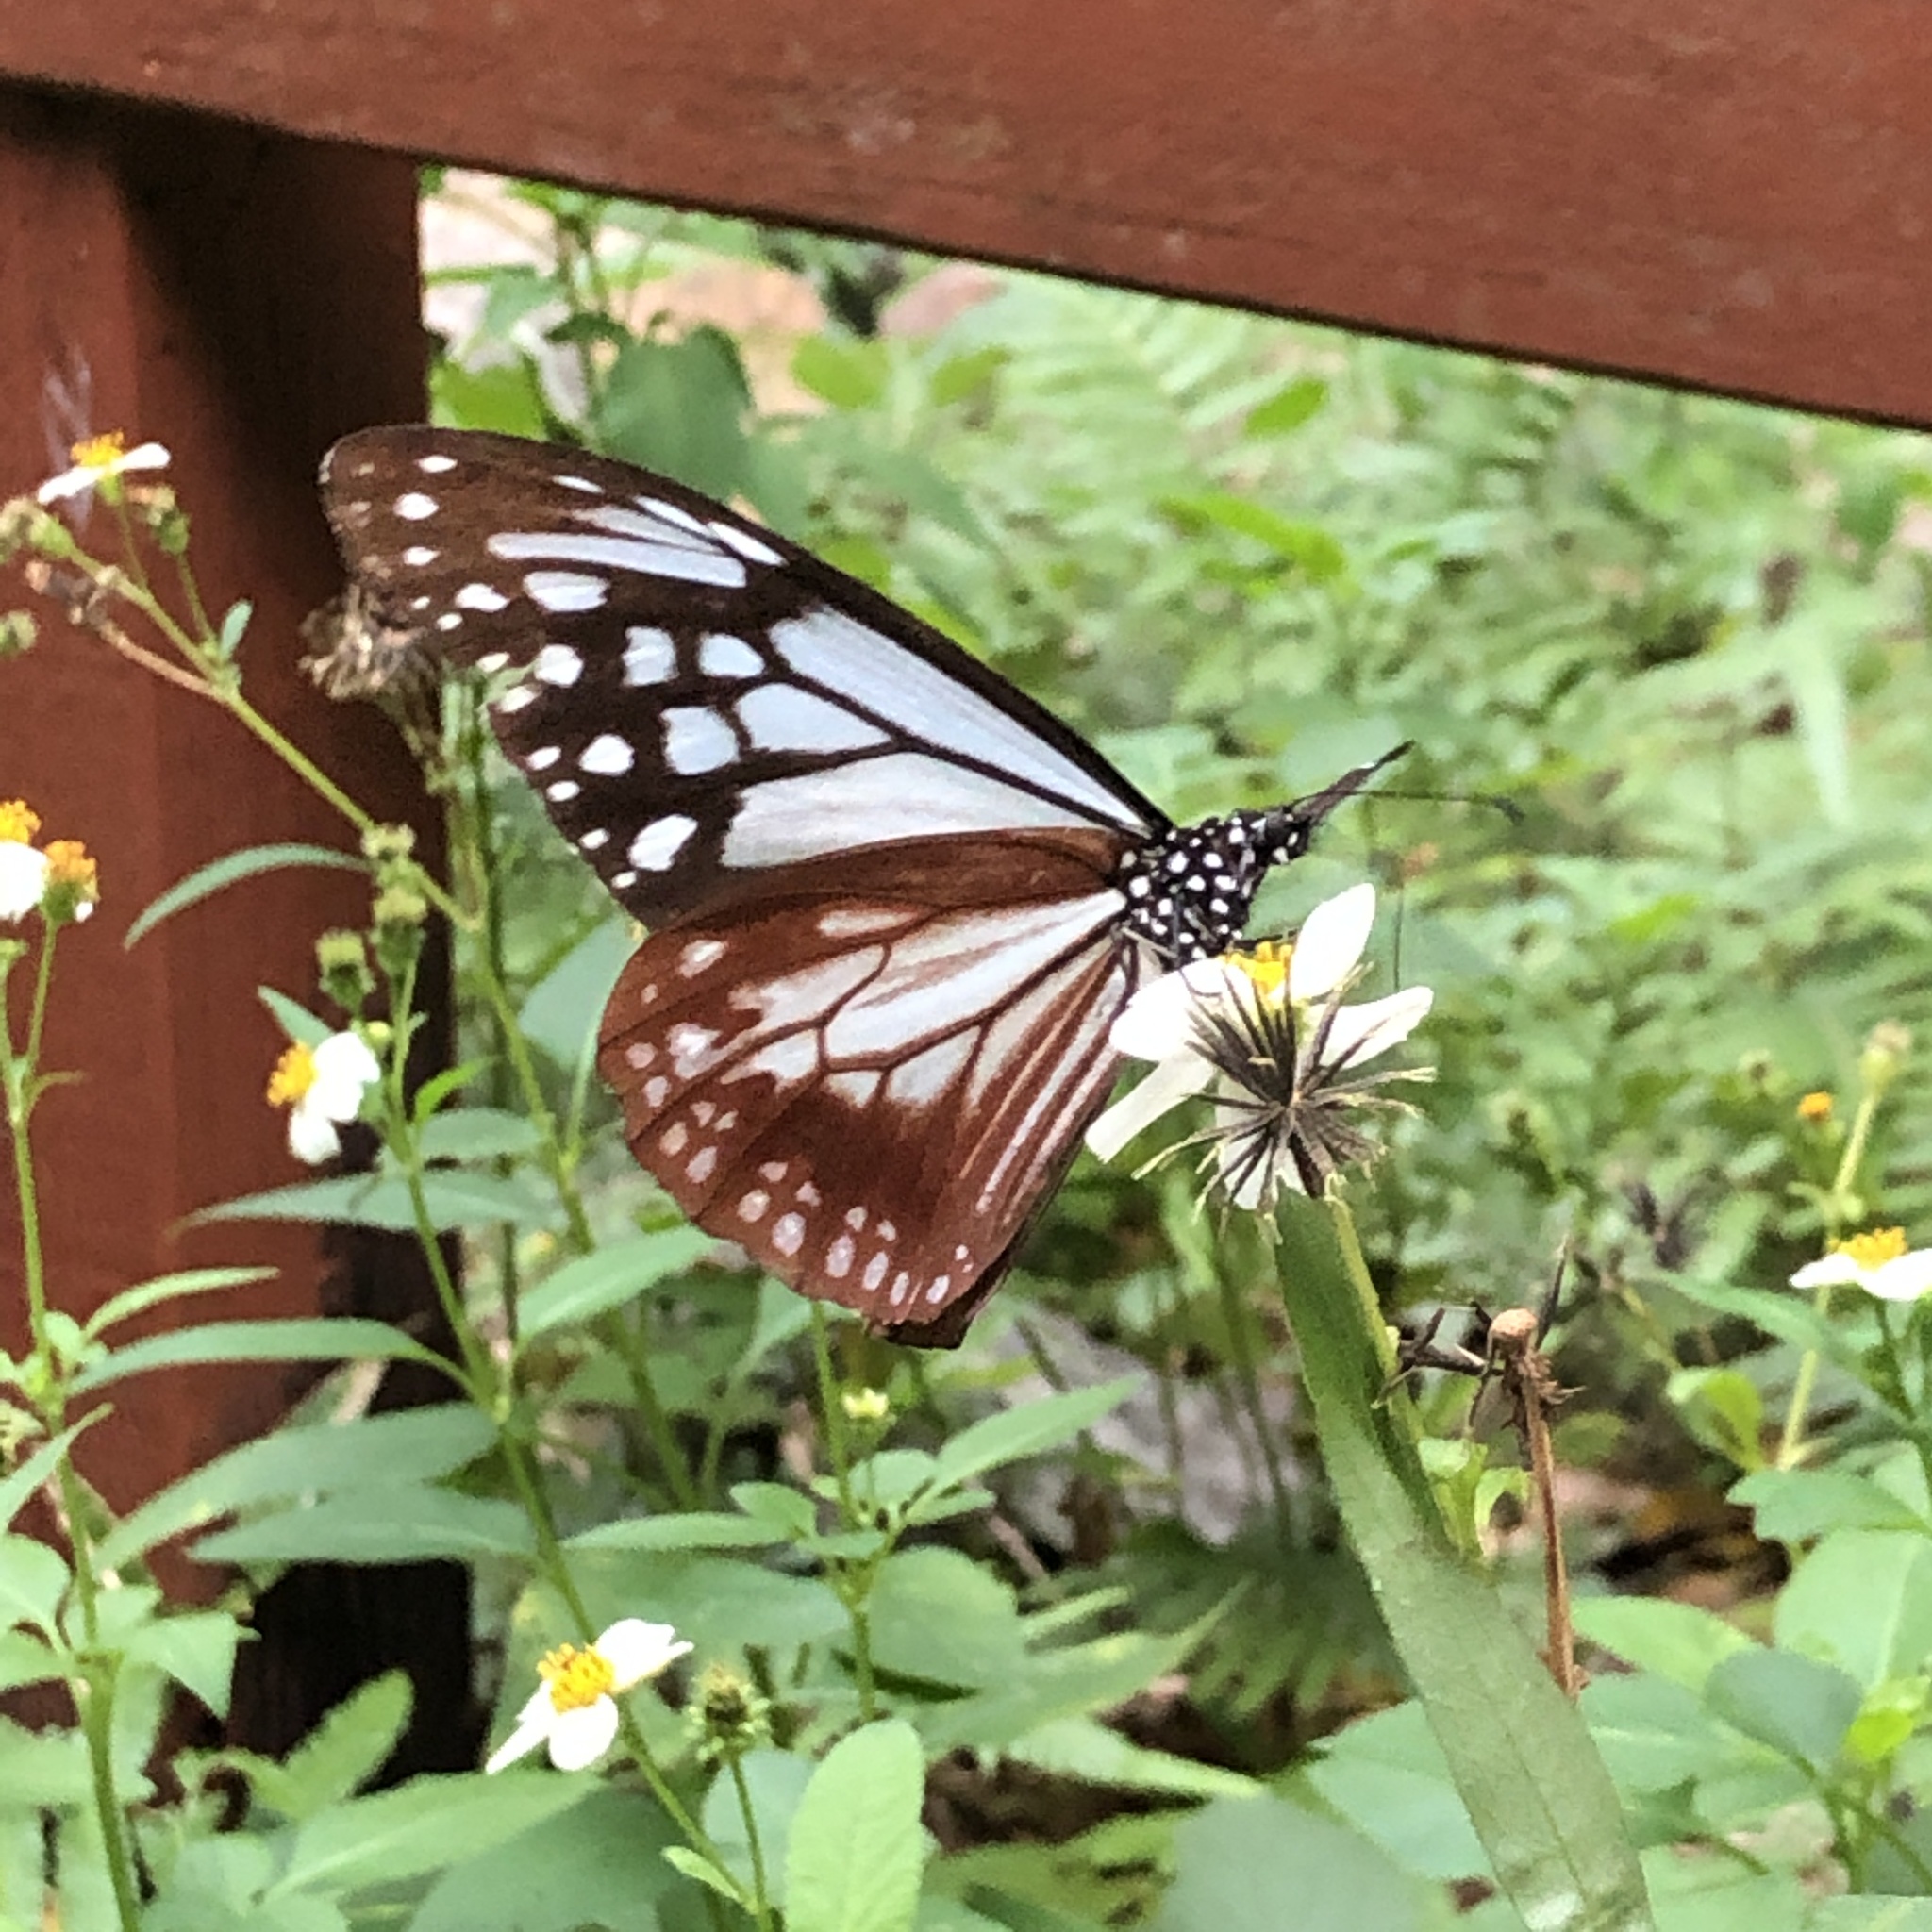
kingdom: Animalia
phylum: Arthropoda
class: Insecta
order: Lepidoptera
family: Nymphalidae
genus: Parantica
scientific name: Parantica sita
